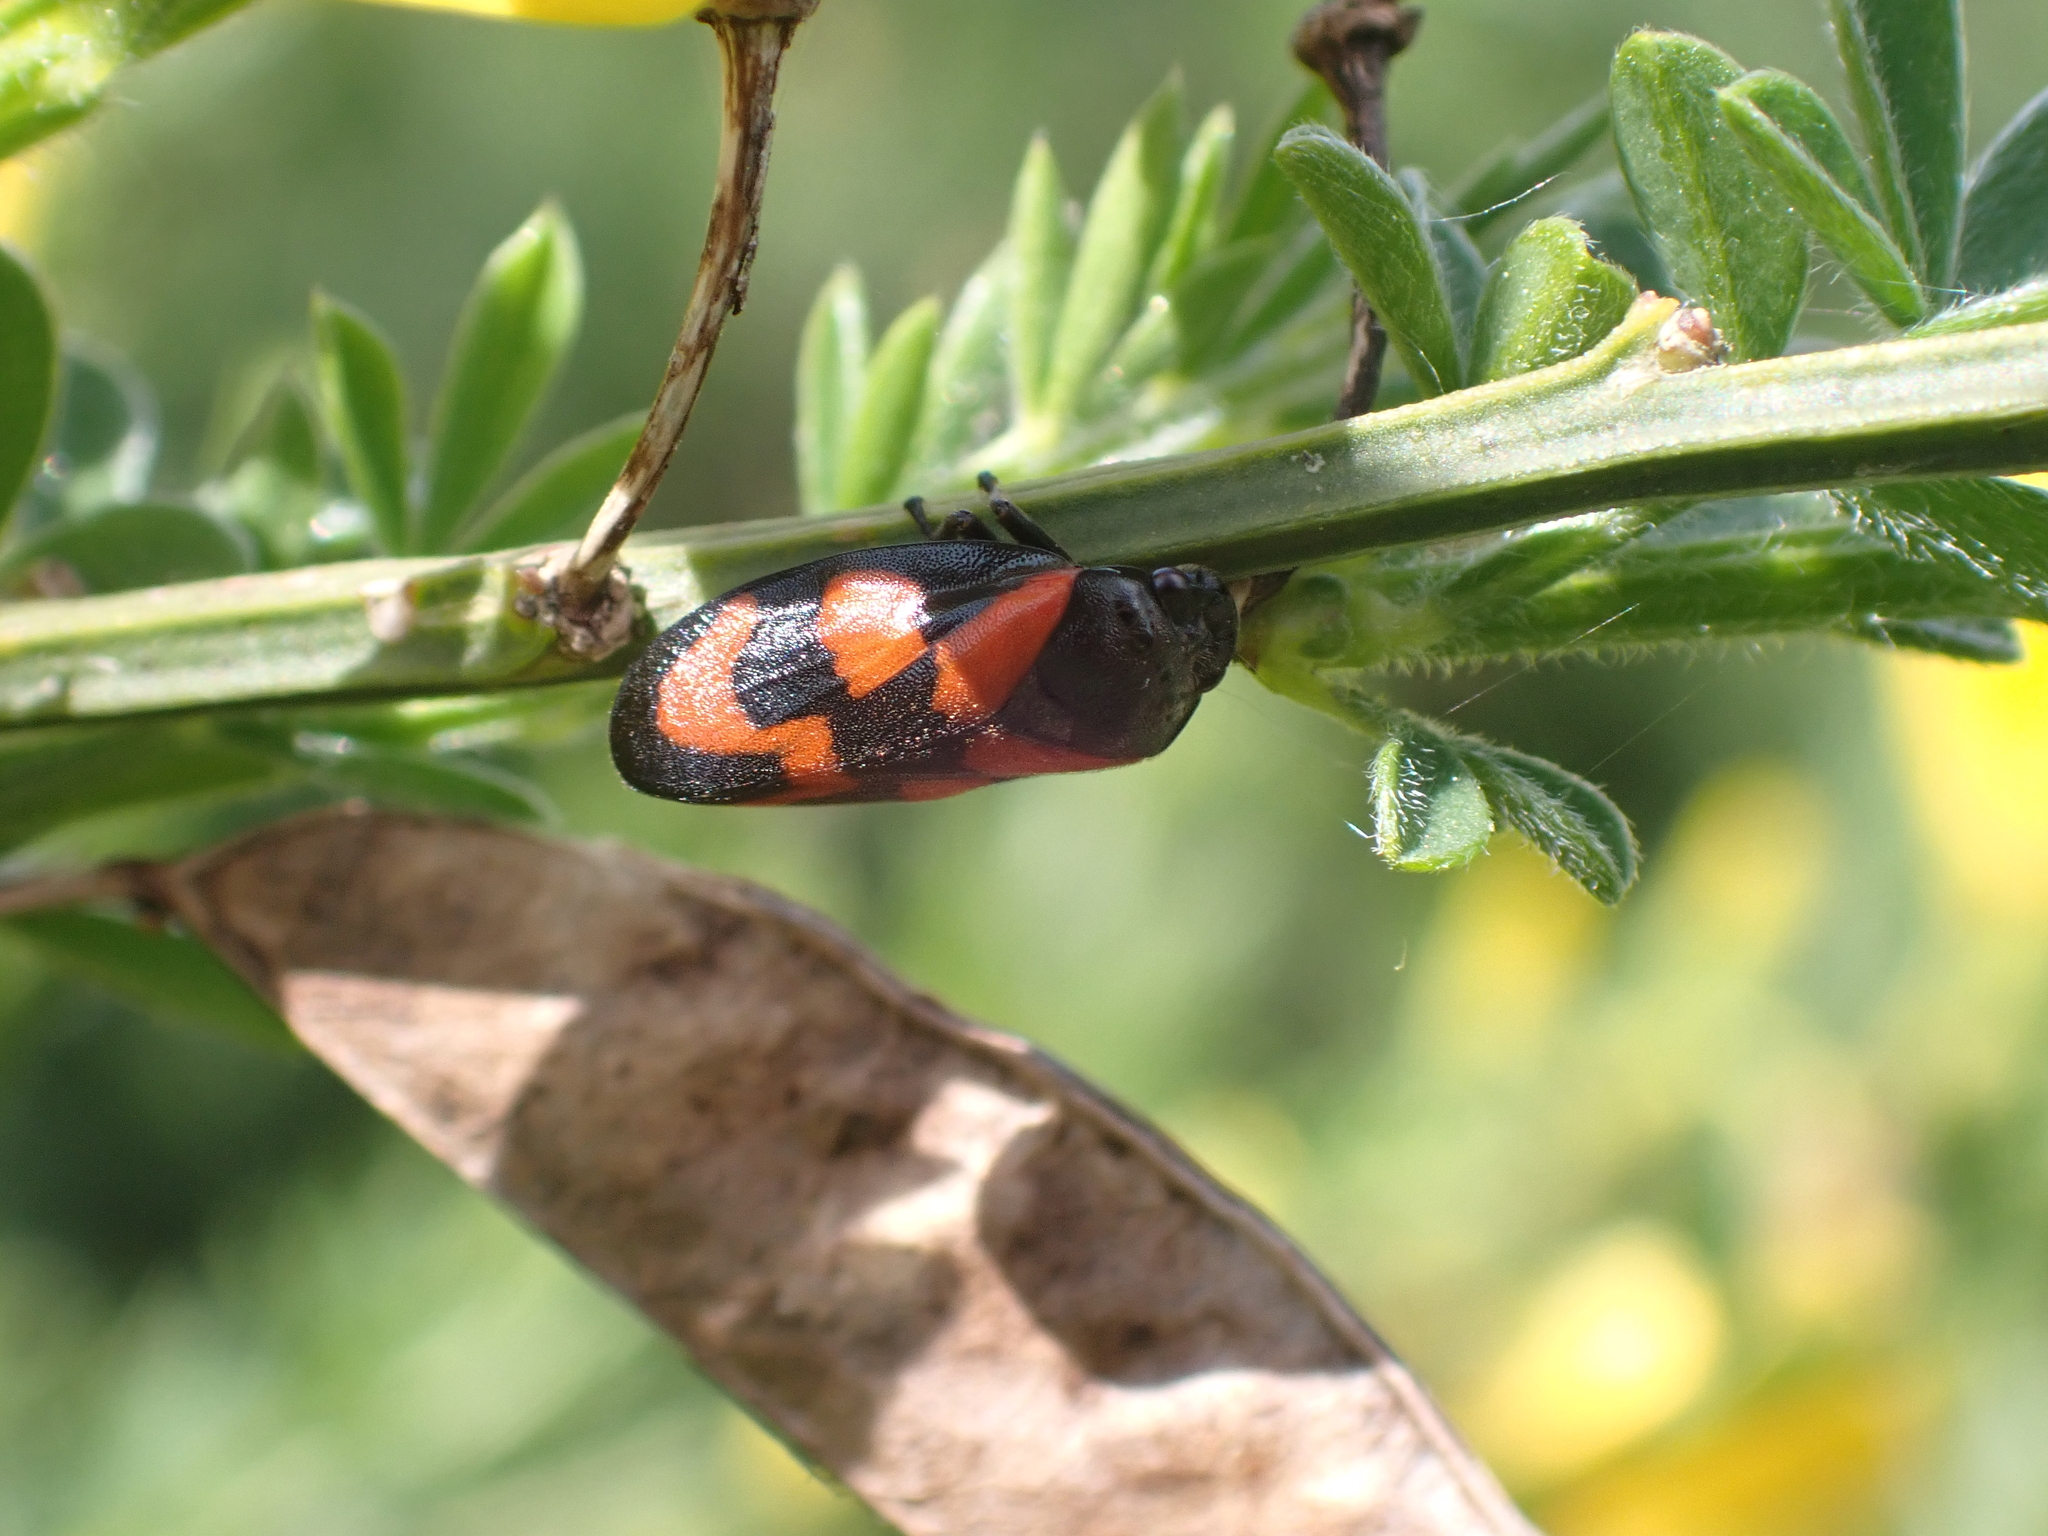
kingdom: Animalia
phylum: Arthropoda
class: Insecta
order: Hemiptera
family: Cercopidae
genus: Cercopis
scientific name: Cercopis vulnerata
